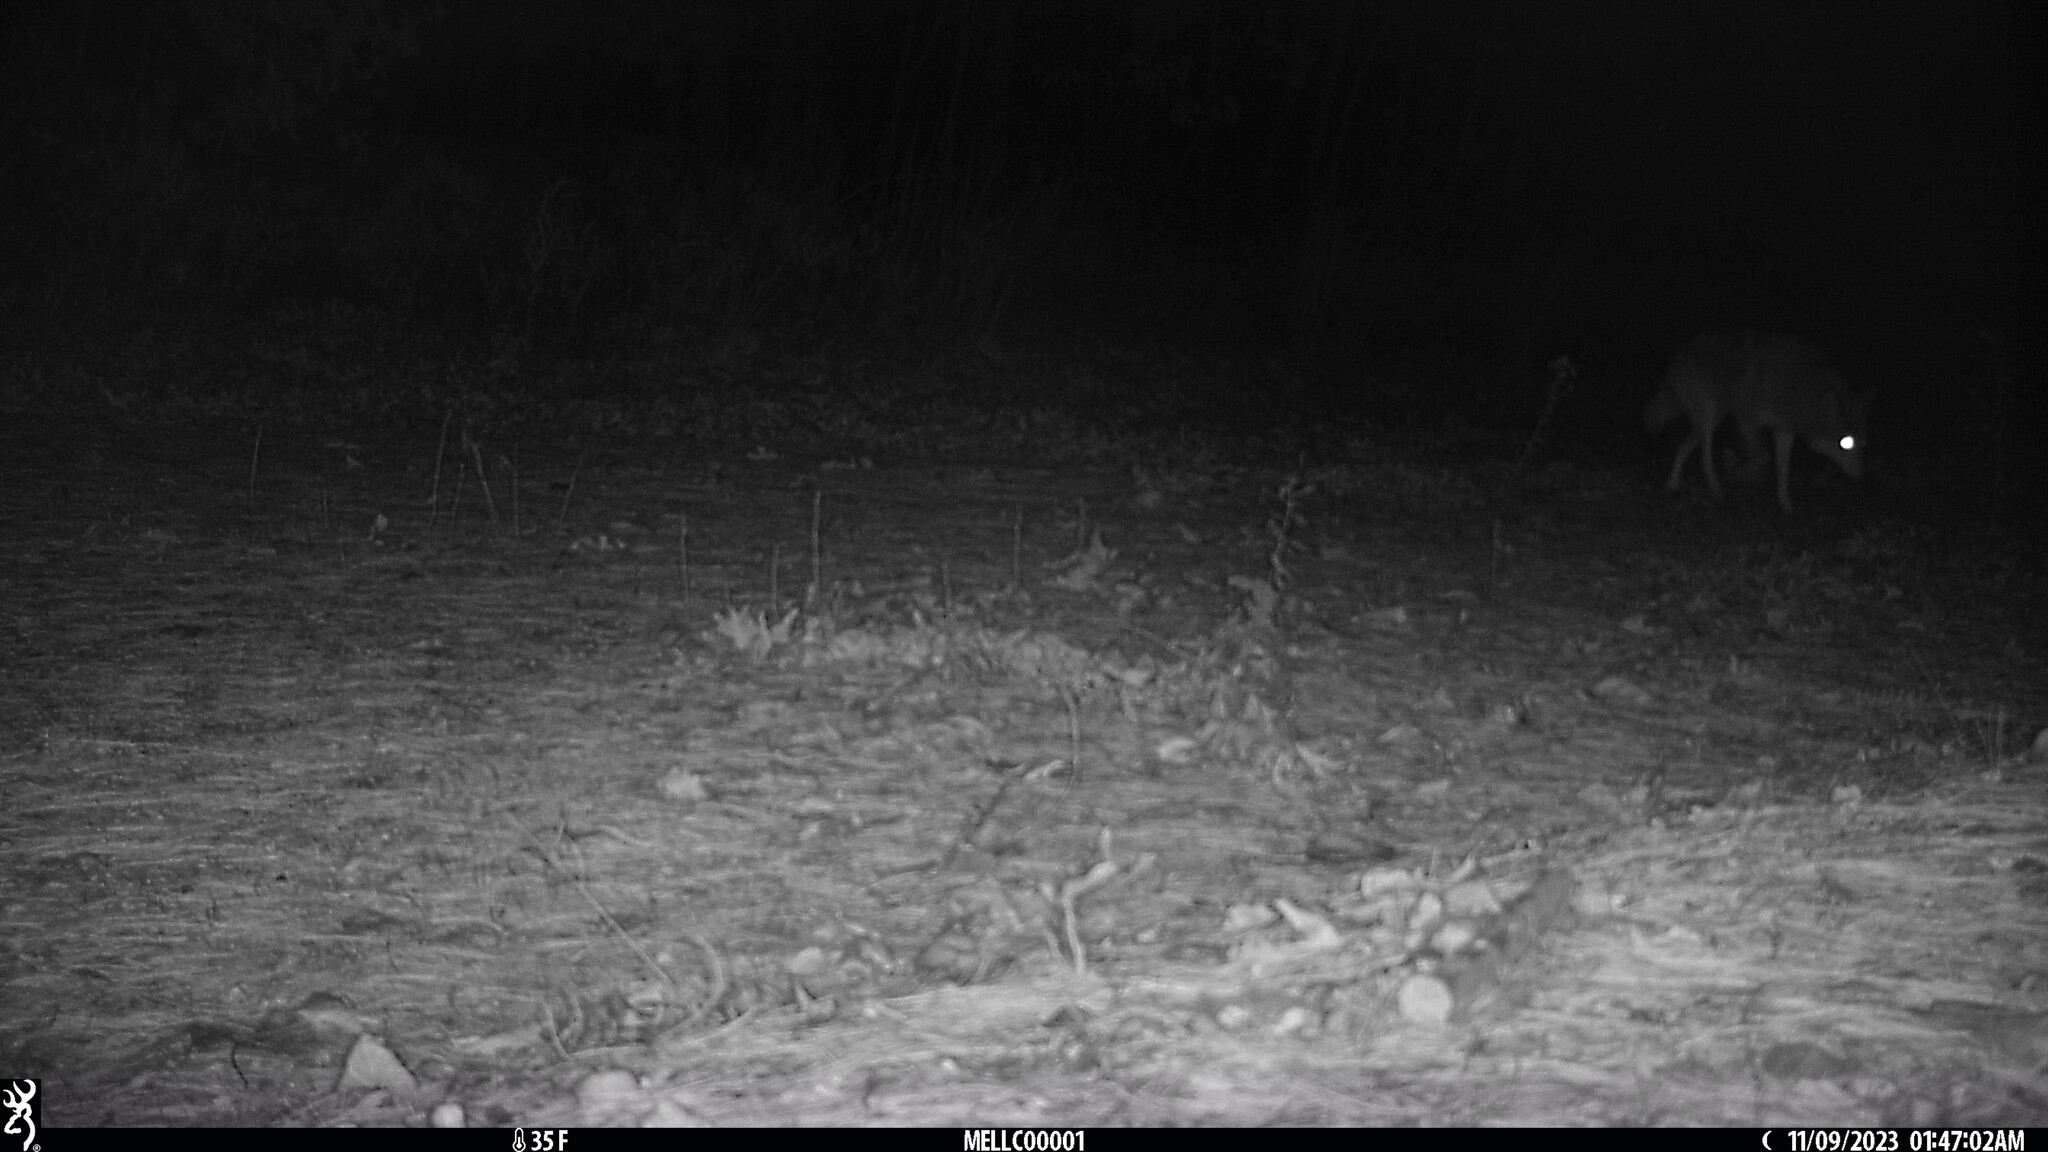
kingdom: Animalia
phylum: Chordata
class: Mammalia
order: Carnivora
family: Canidae
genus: Canis
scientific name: Canis latrans
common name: Coyote
